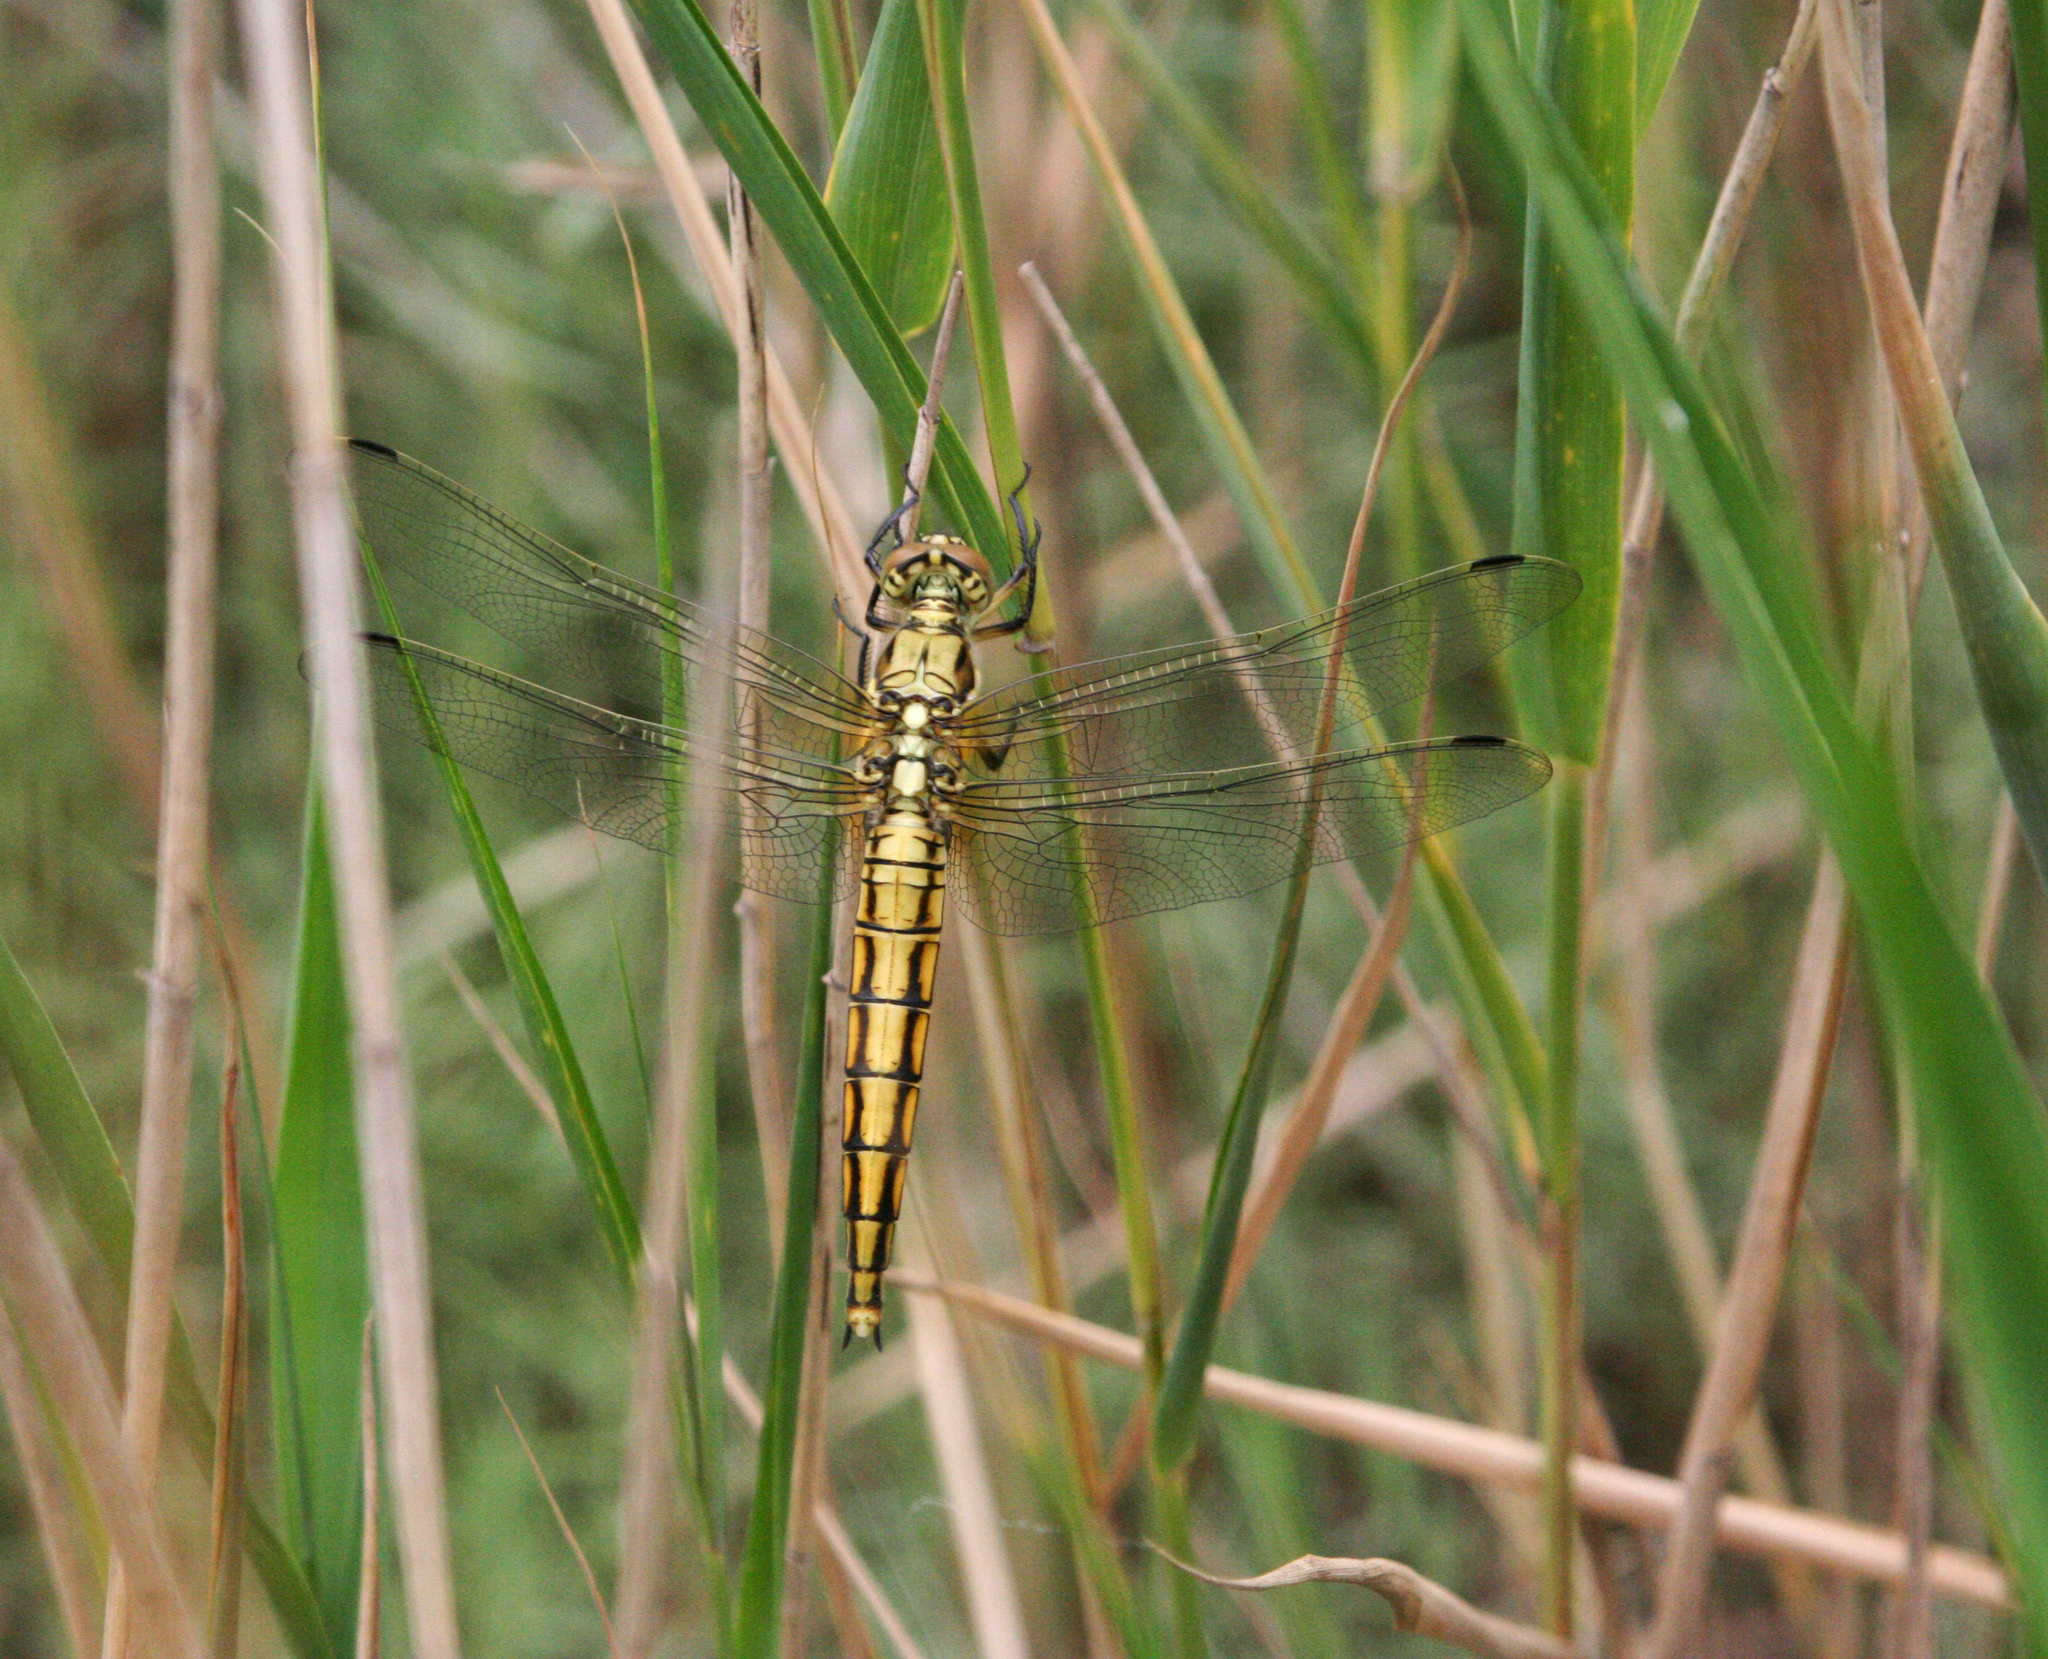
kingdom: Animalia
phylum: Arthropoda
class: Insecta
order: Odonata
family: Libellulidae
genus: Orthetrum
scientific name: Orthetrum cancellatum
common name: Black-tailed skimmer
